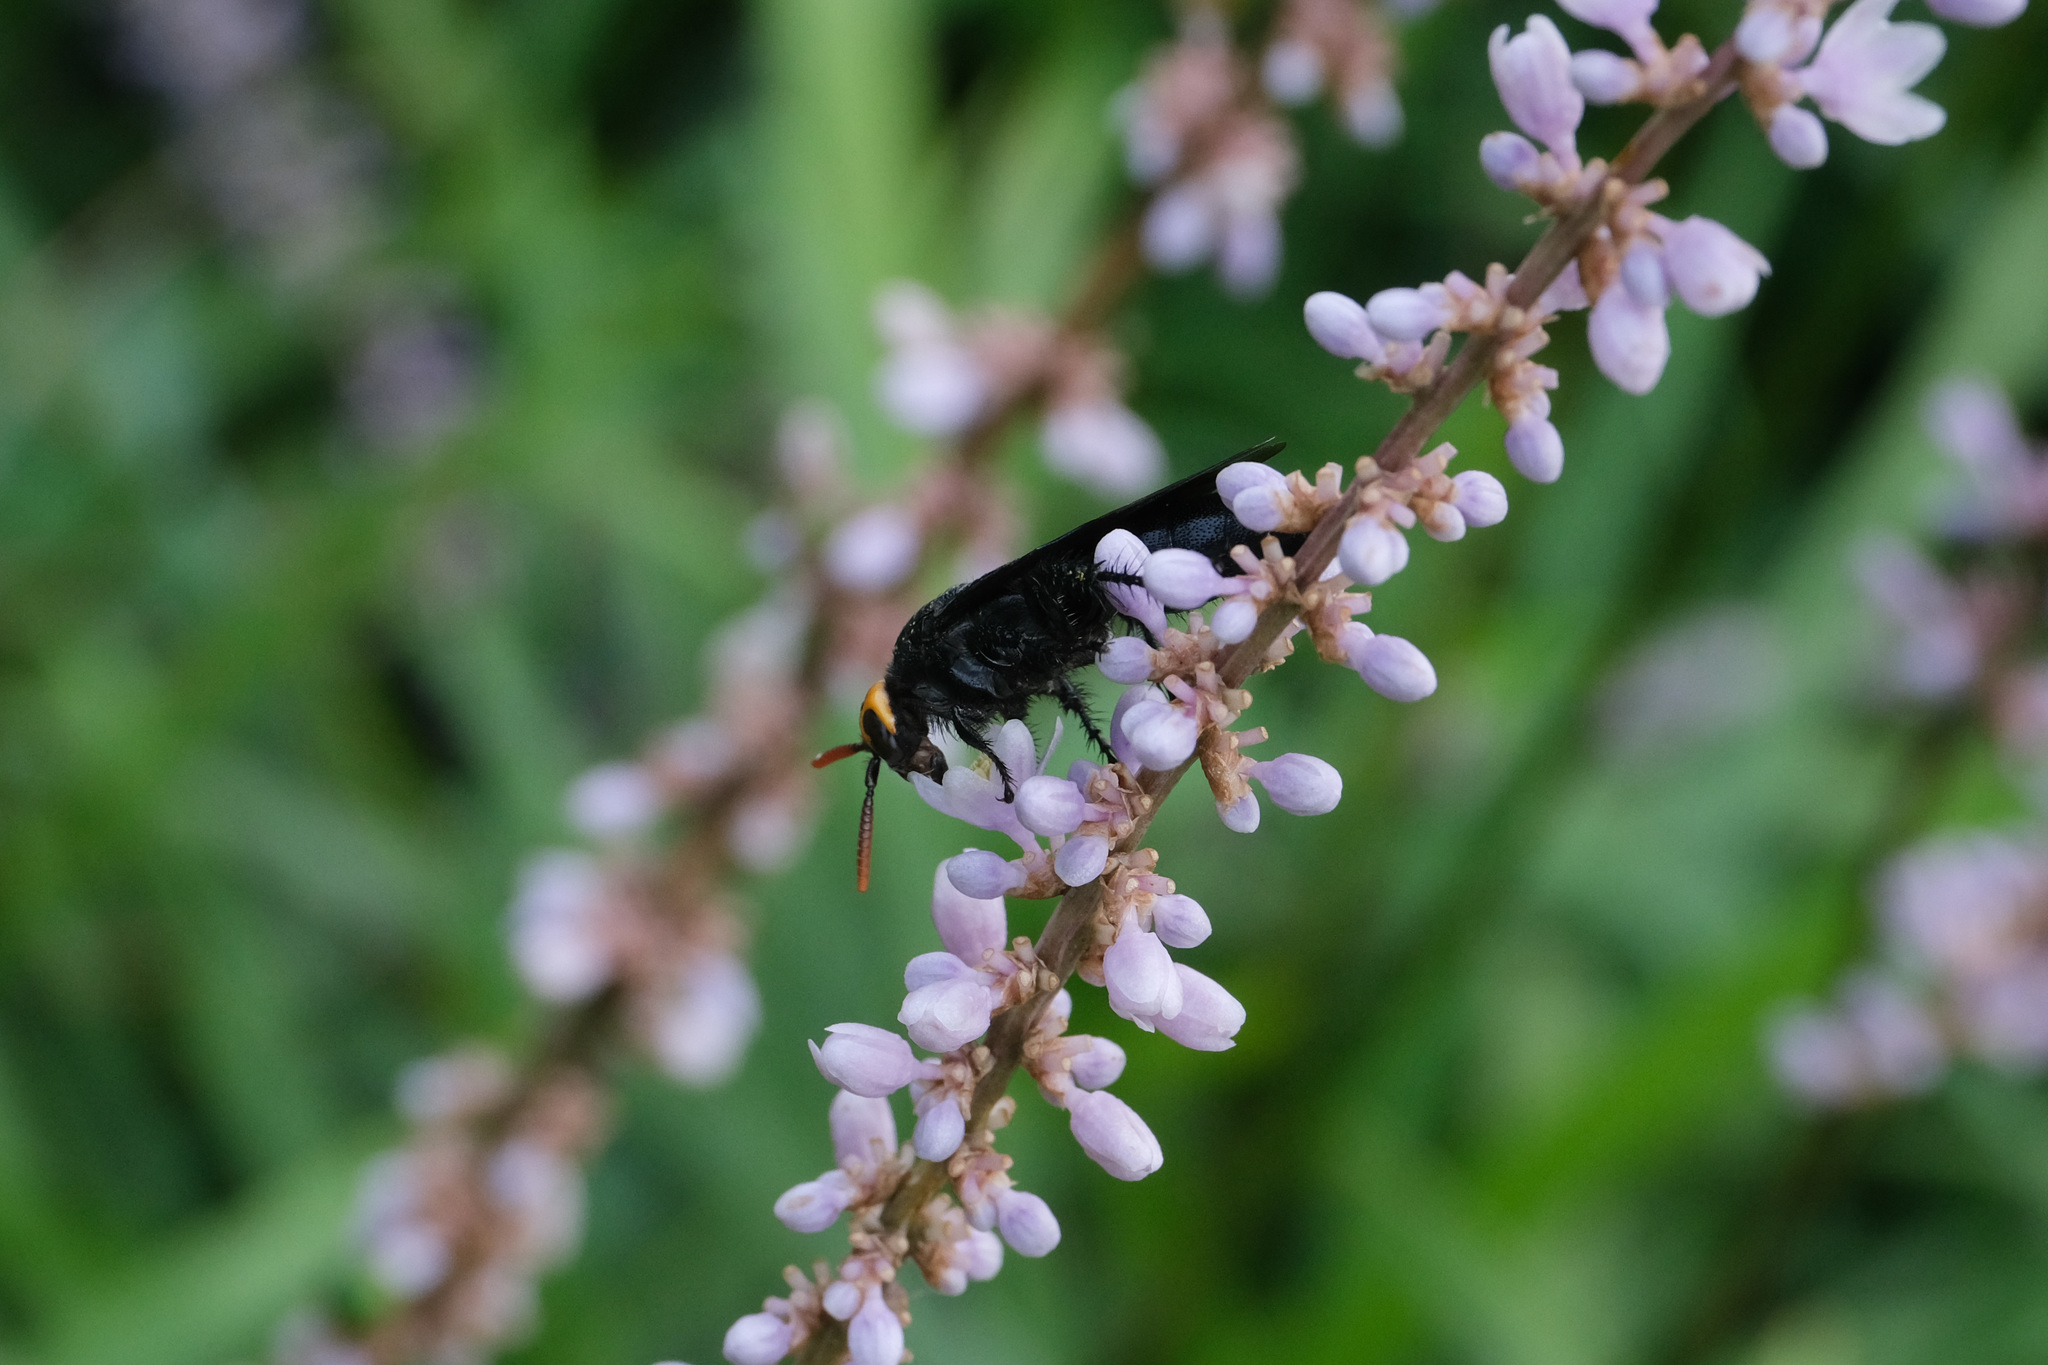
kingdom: Animalia
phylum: Arthropoda
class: Insecta
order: Hymenoptera
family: Scoliidae
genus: Scolia
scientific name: Scolia superciliaris
